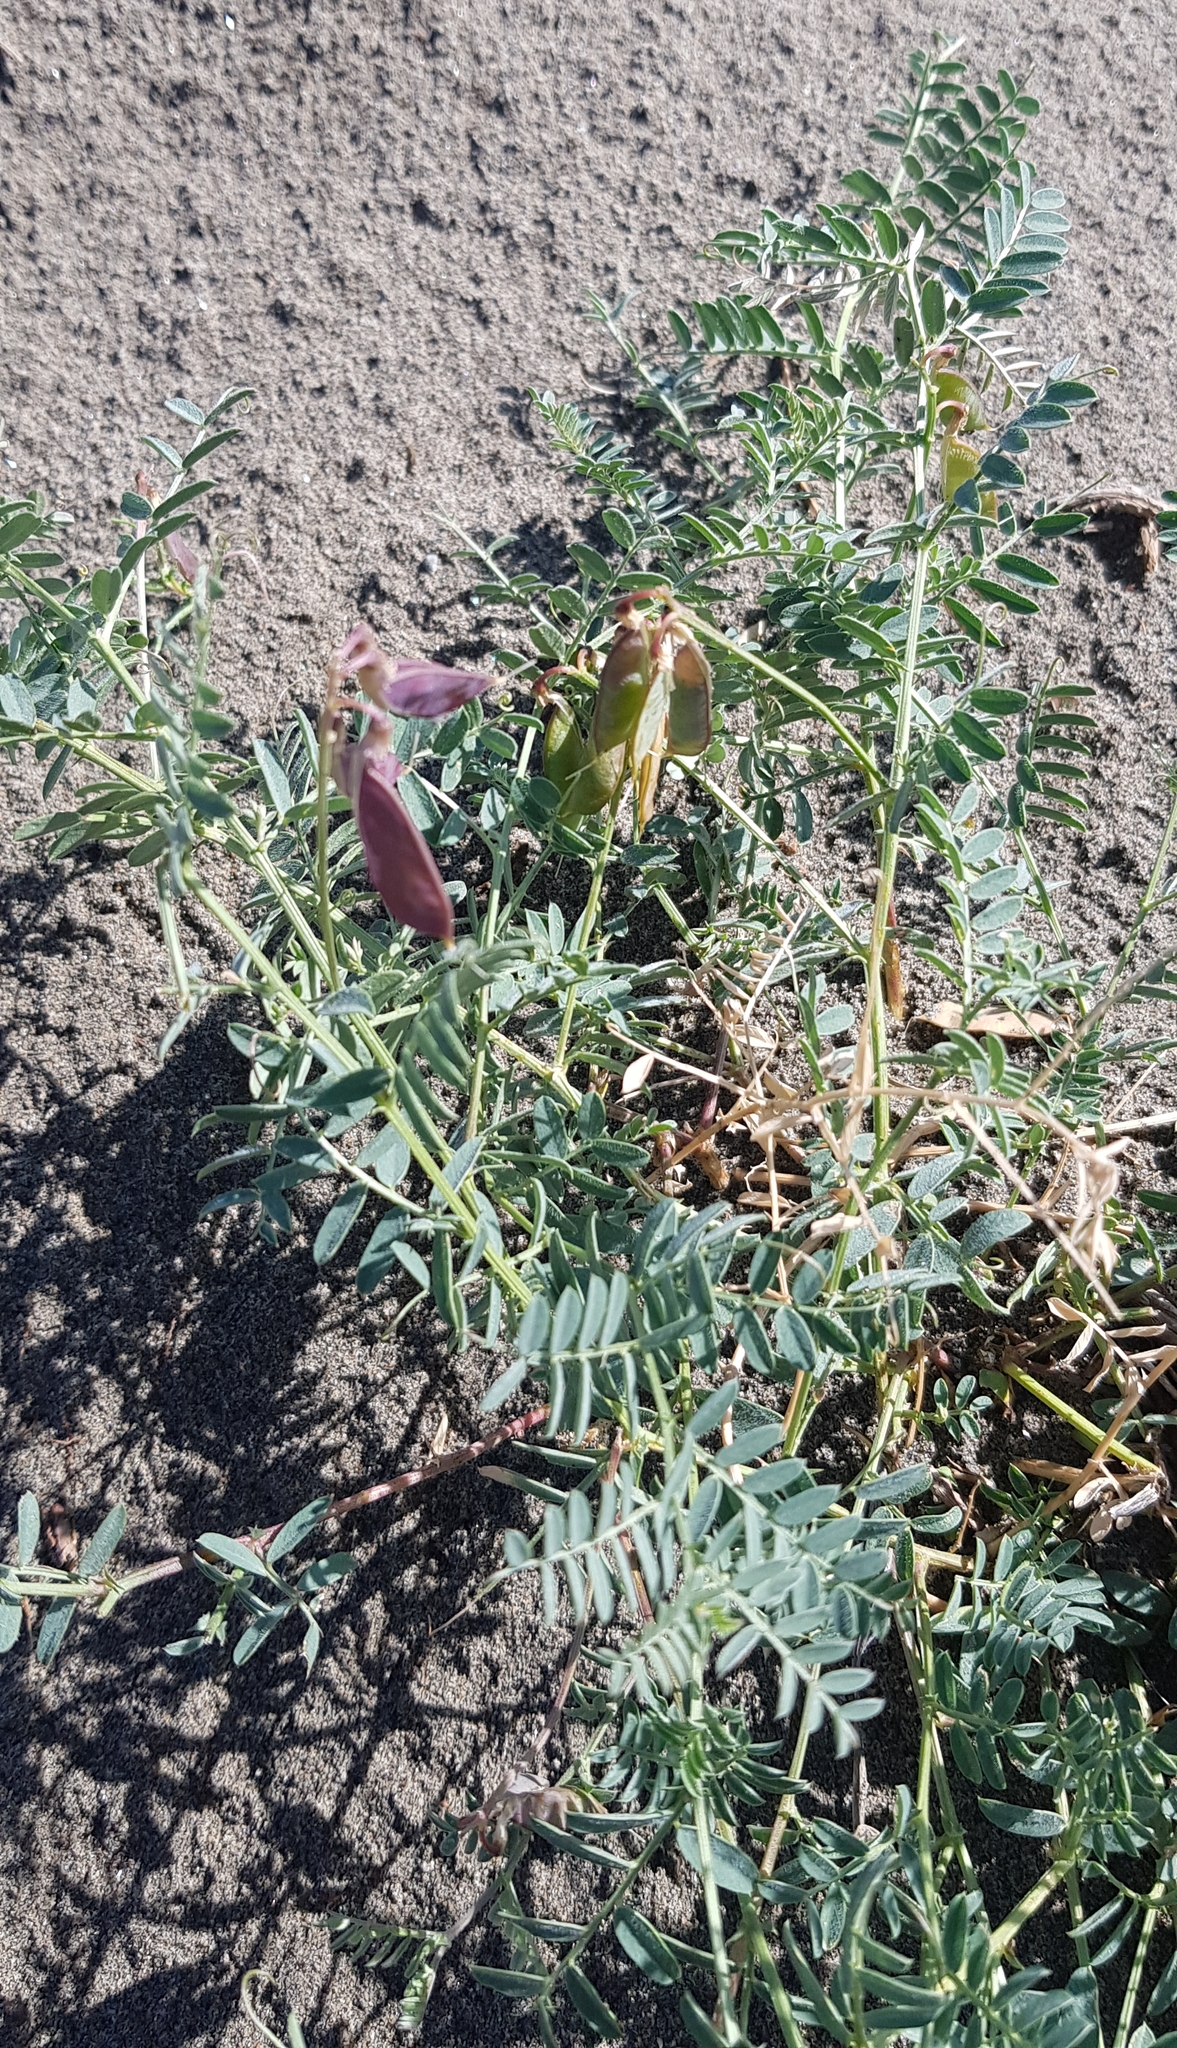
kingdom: Plantae
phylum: Tracheophyta
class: Magnoliopsida
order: Fabales
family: Fabaceae
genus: Lathyrus
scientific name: Lathyrus humilis
